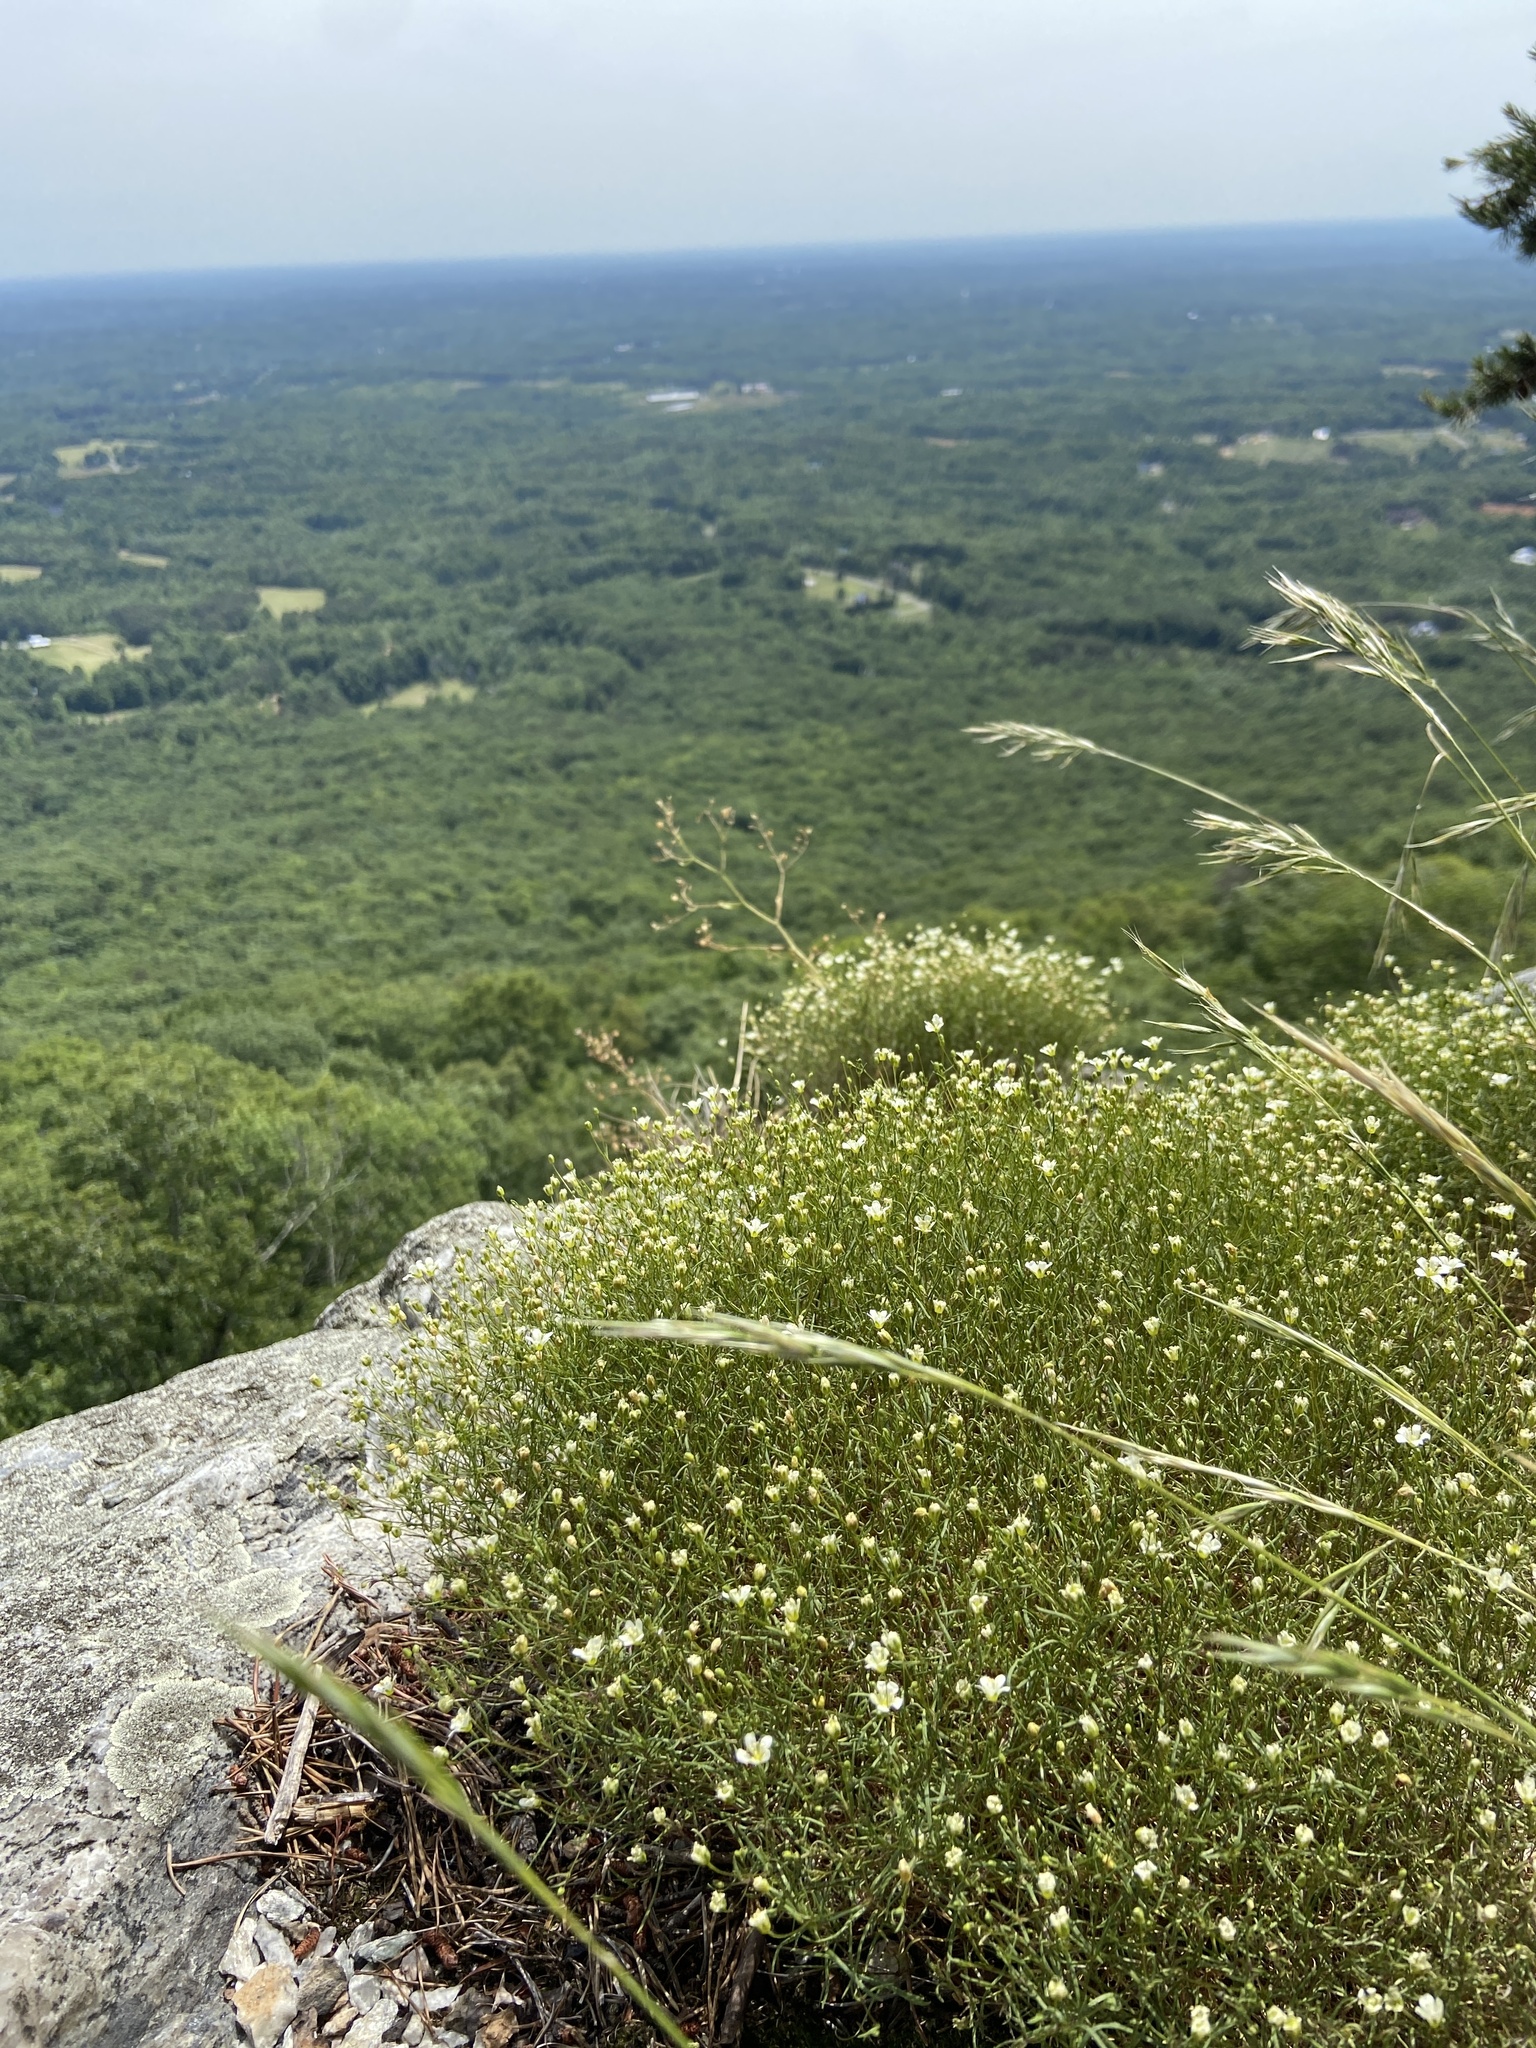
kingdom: Plantae
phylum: Tracheophyta
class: Magnoliopsida
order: Caryophyllales
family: Caryophyllaceae
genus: Geocarpon
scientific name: Geocarpon groenlandicum
